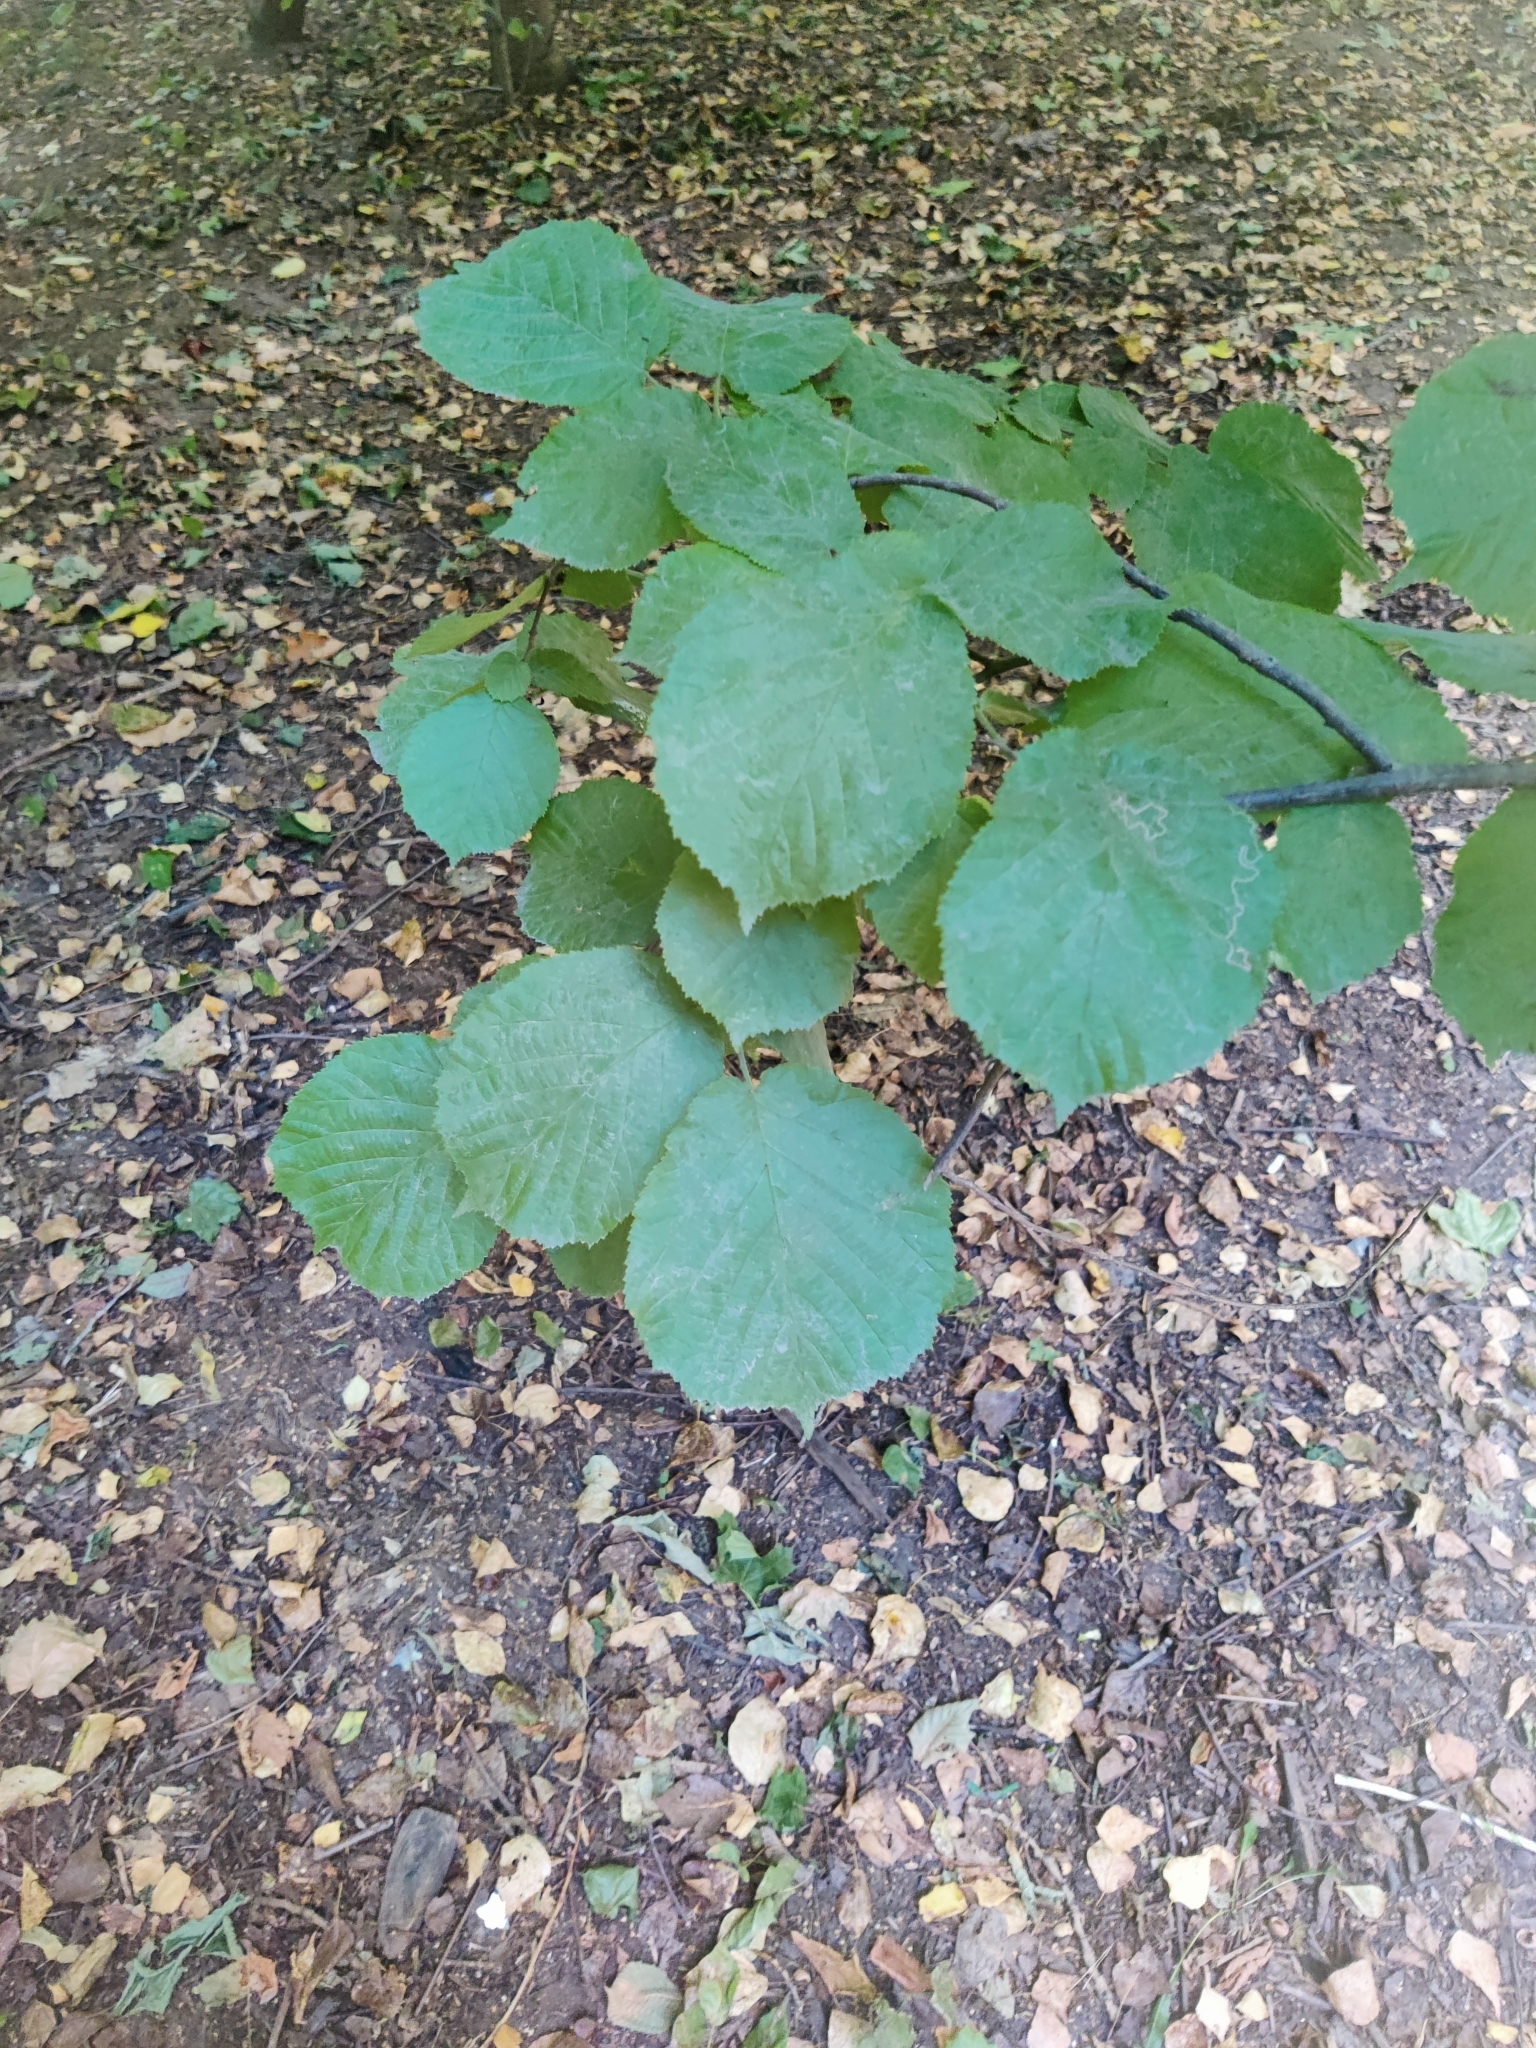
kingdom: Plantae
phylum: Tracheophyta
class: Magnoliopsida
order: Fagales
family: Betulaceae
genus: Corylus
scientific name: Corylus avellana
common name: European hazel
